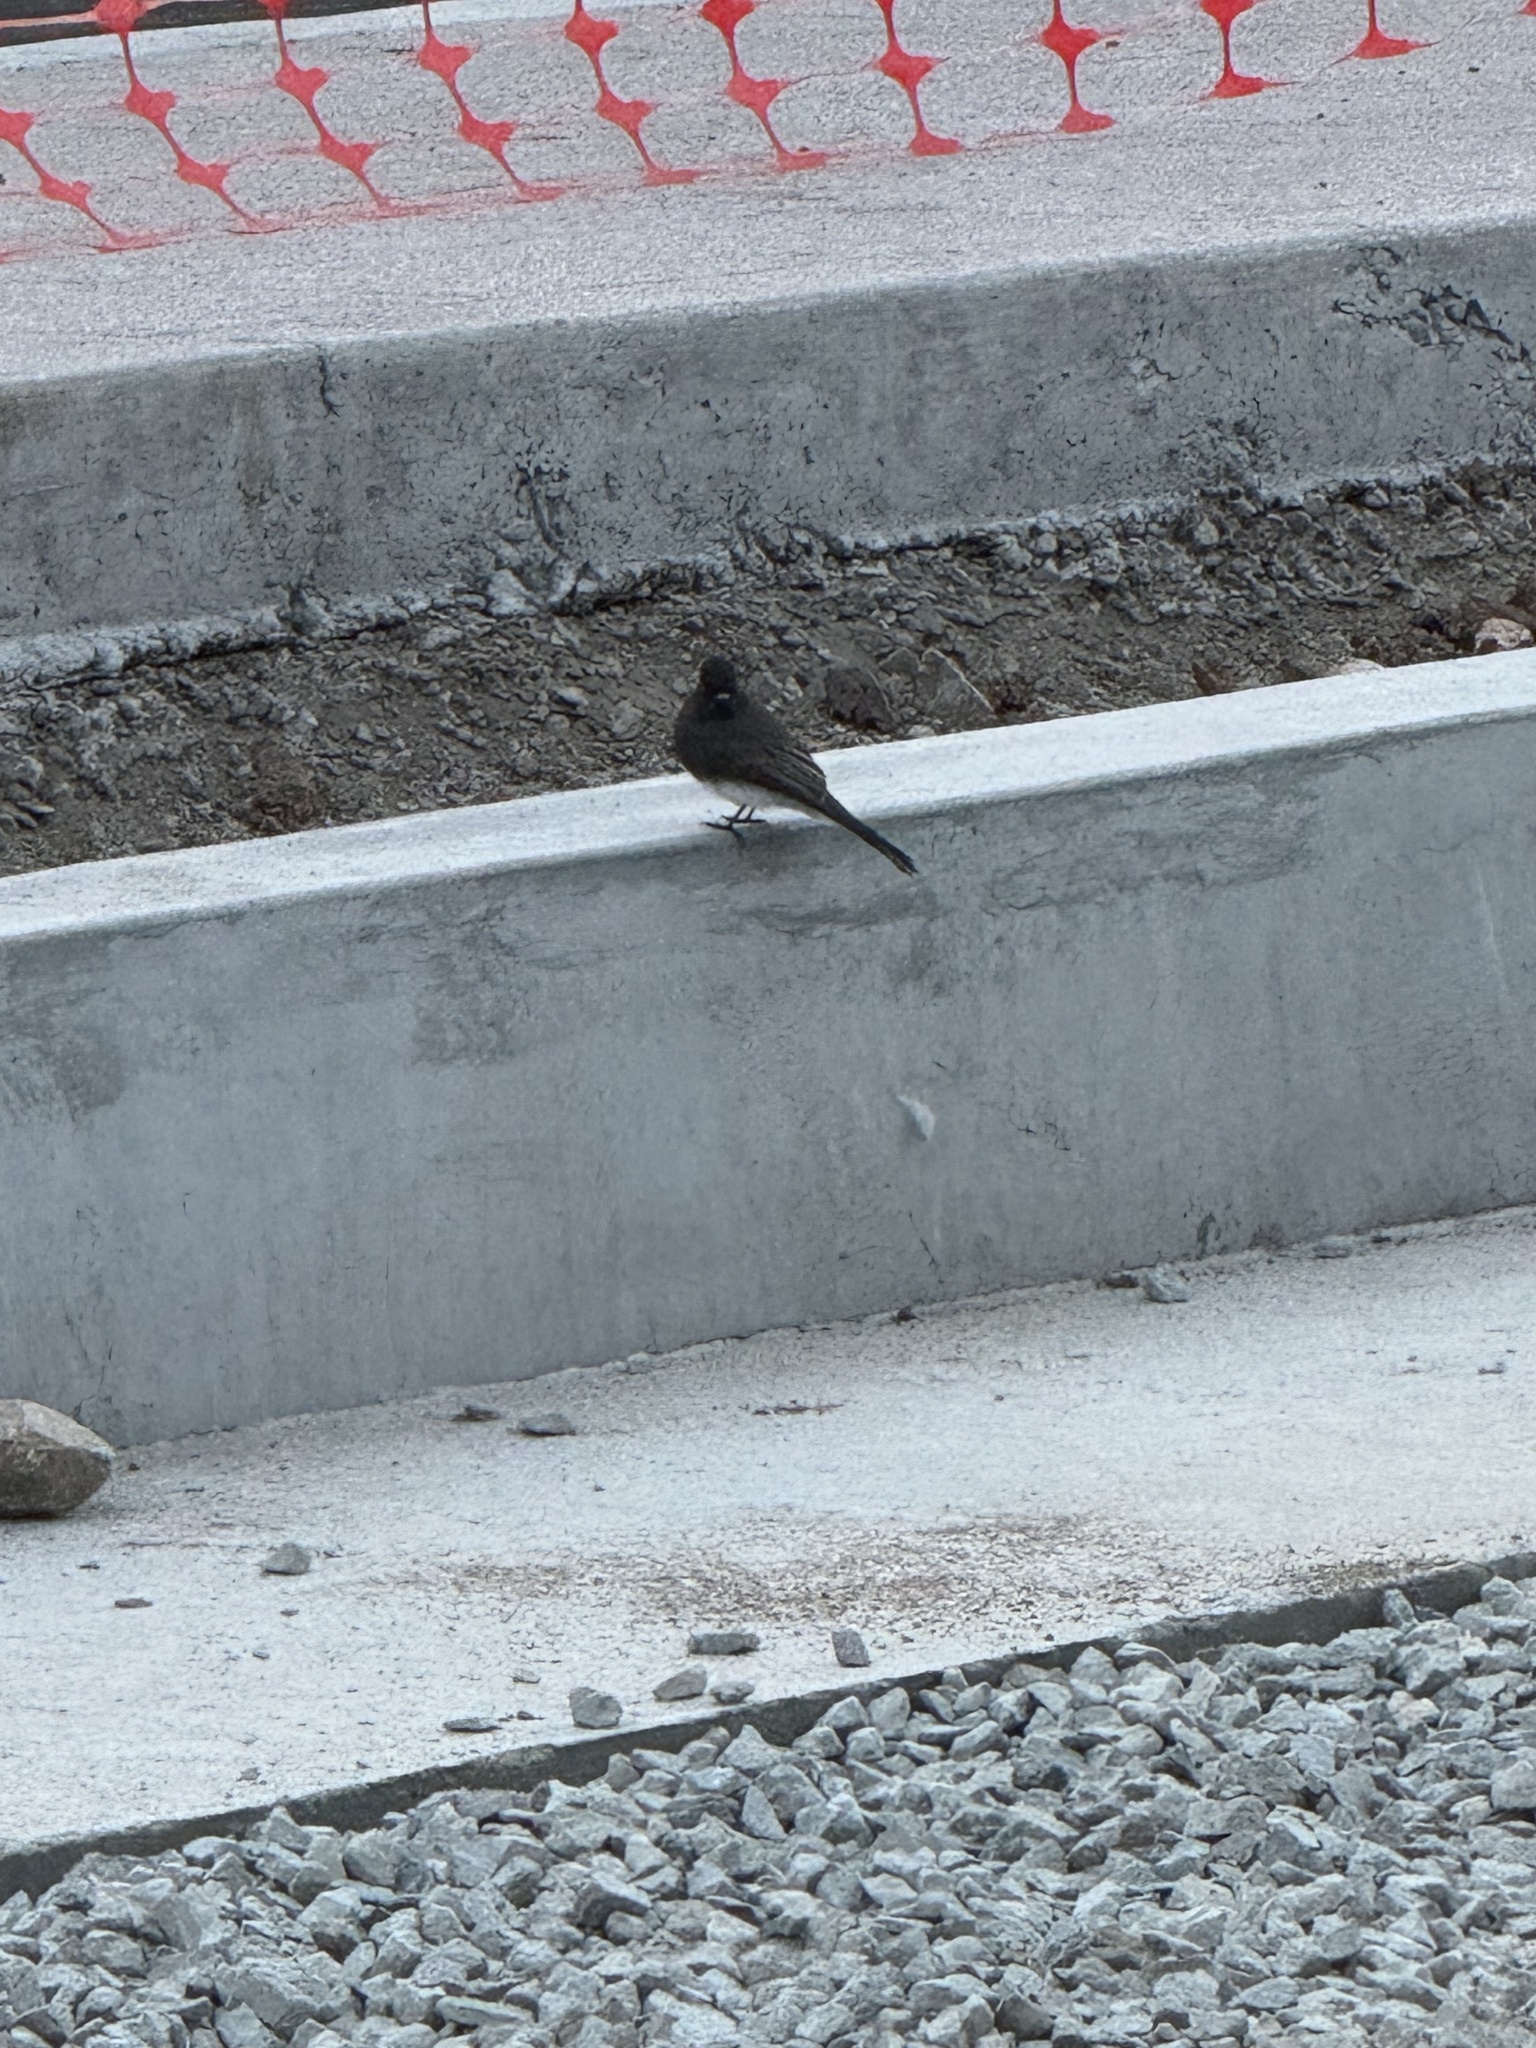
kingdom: Animalia
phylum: Chordata
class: Aves
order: Passeriformes
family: Tyrannidae
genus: Sayornis
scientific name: Sayornis nigricans
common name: Black phoebe
